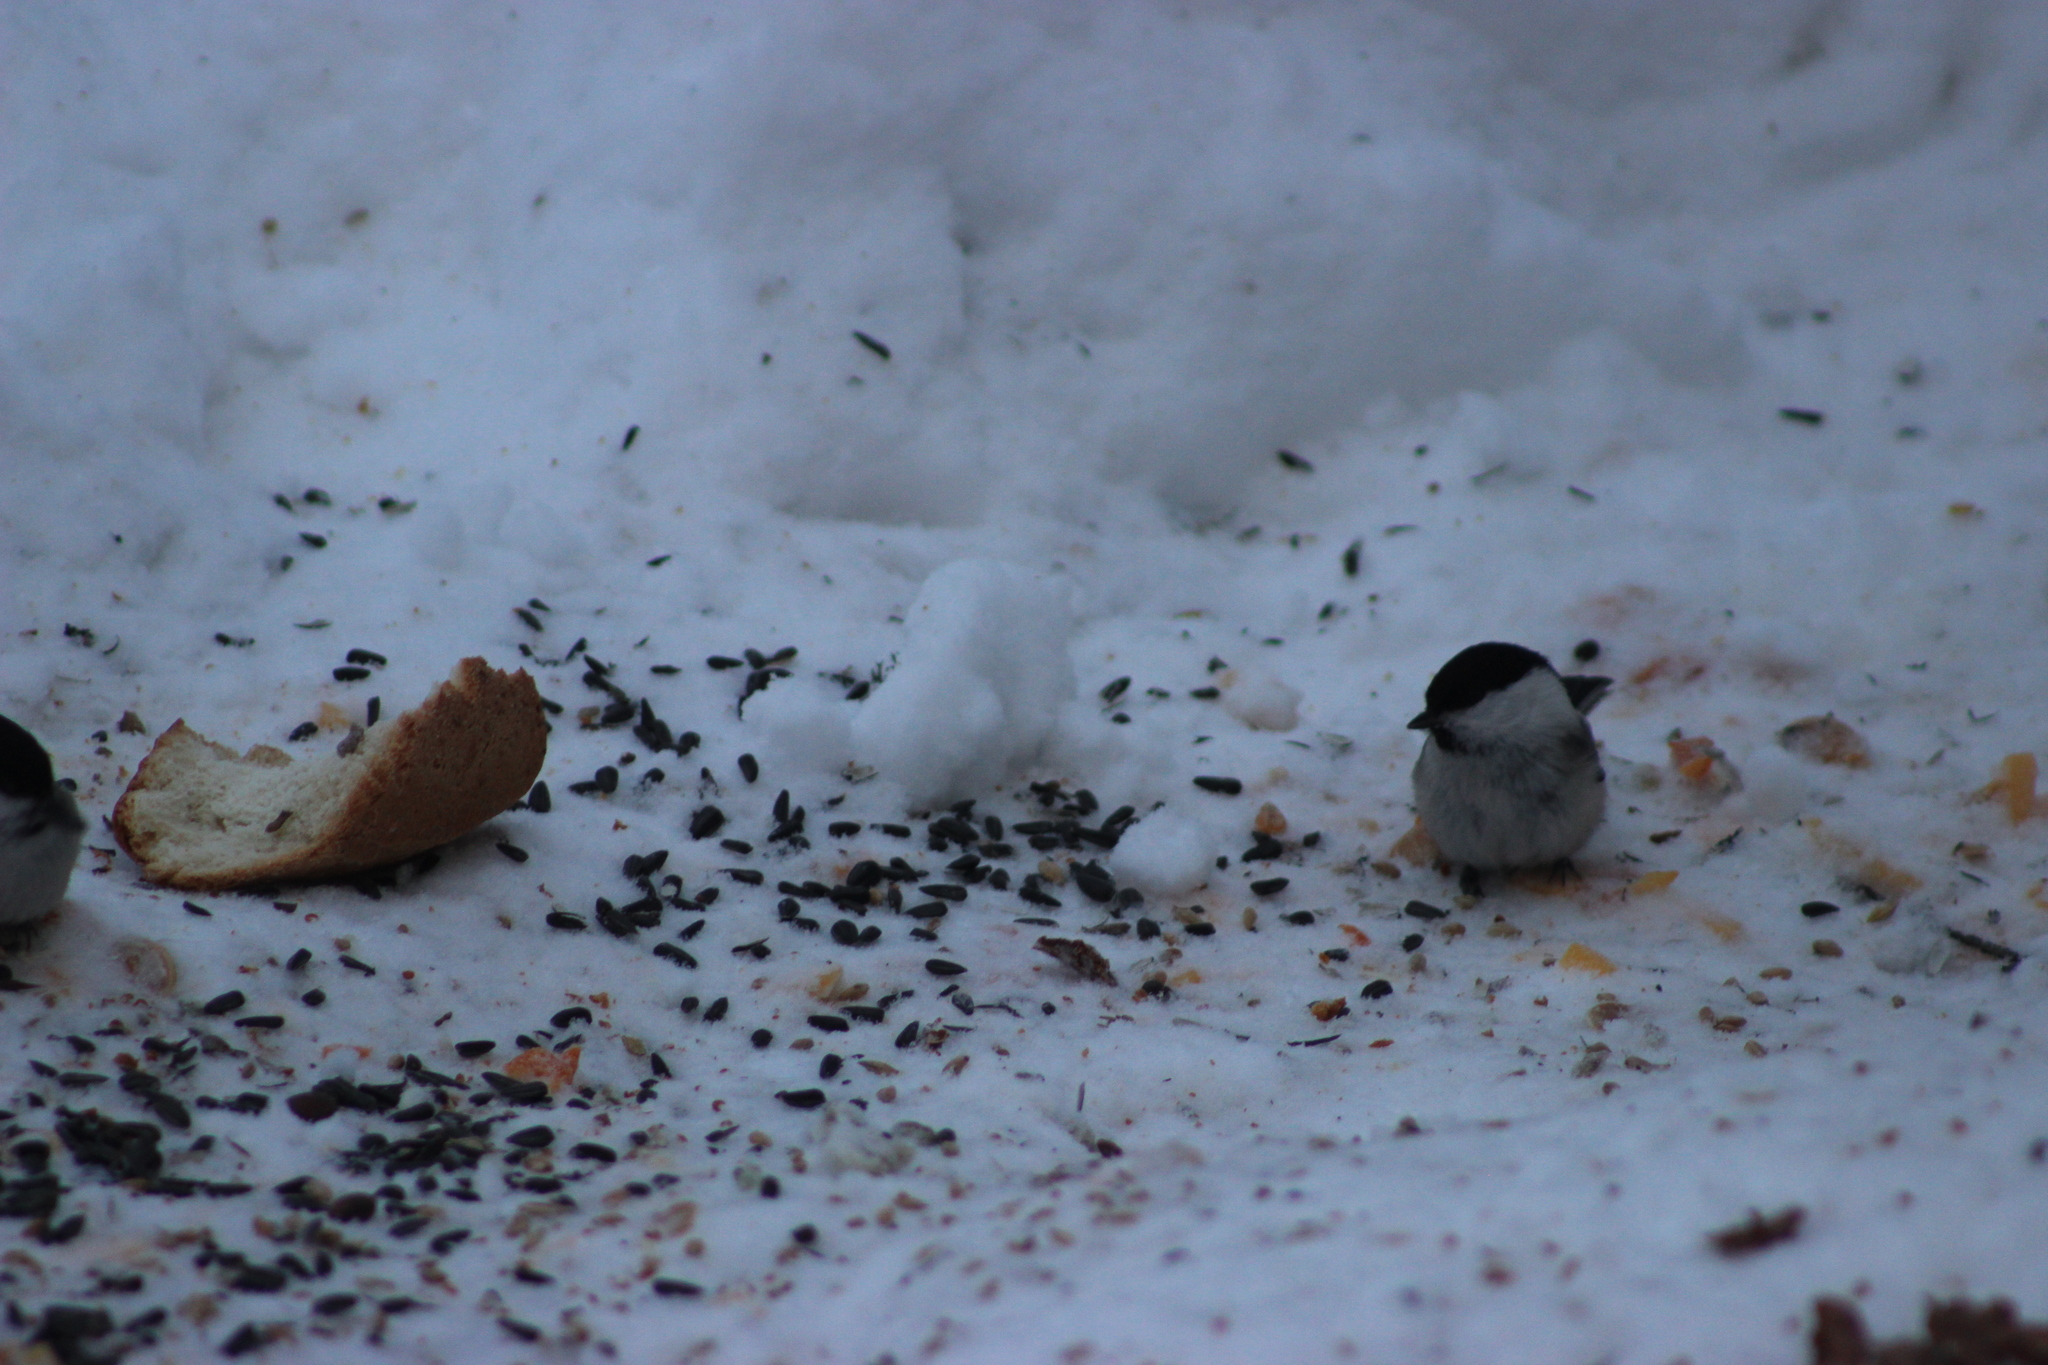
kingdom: Animalia
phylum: Chordata
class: Aves
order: Passeriformes
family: Paridae
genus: Poecile
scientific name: Poecile montanus
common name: Willow tit
